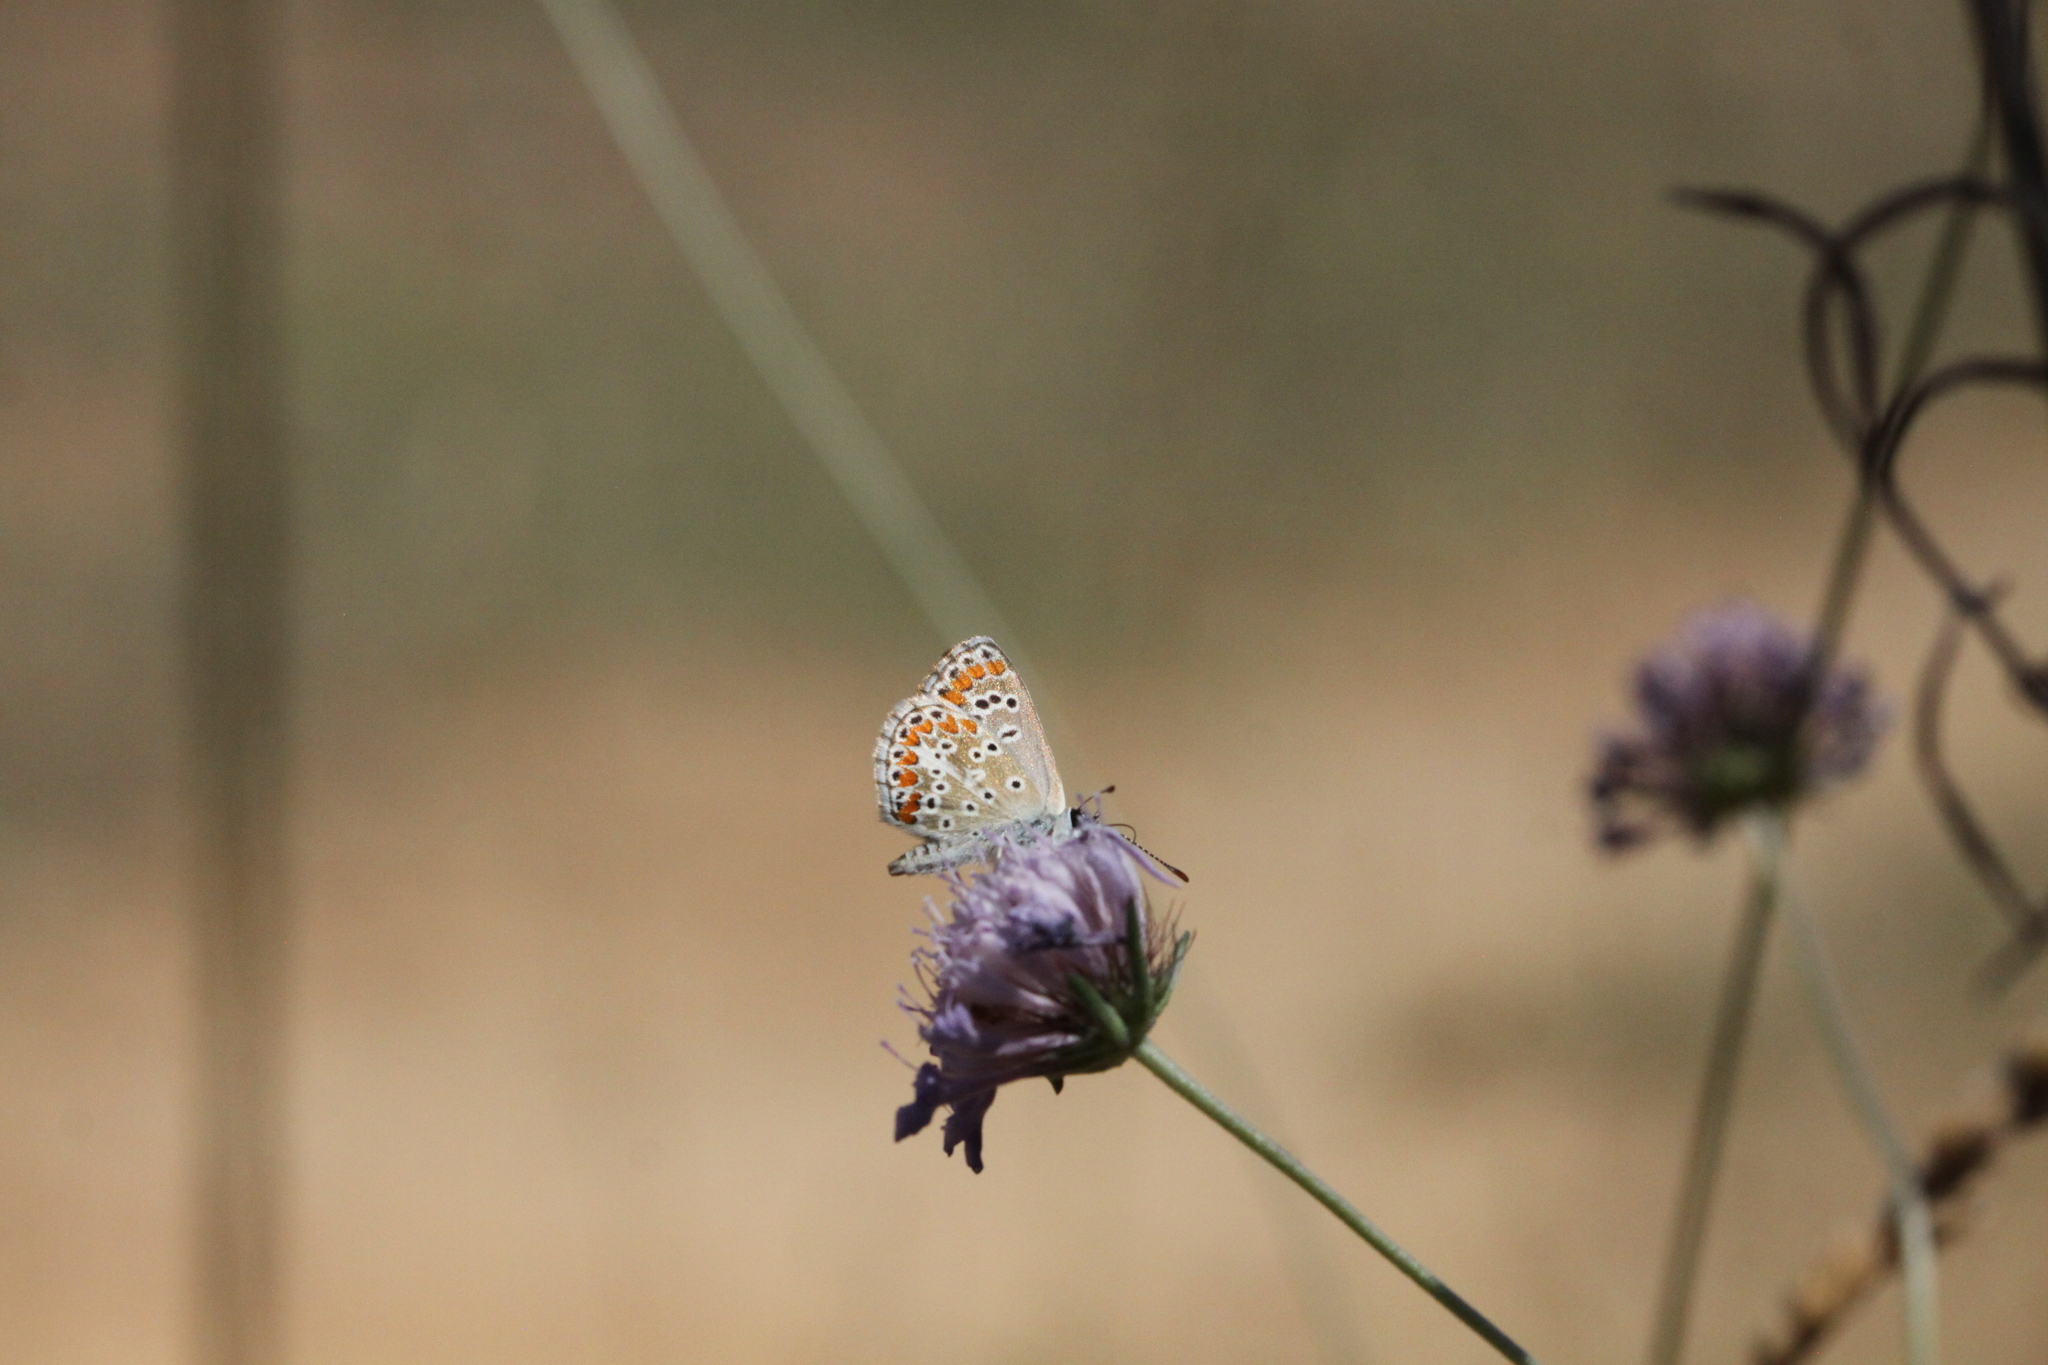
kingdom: Animalia
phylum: Arthropoda
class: Insecta
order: Lepidoptera
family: Lycaenidae
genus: Aricia
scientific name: Aricia agestis
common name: Brown argus
